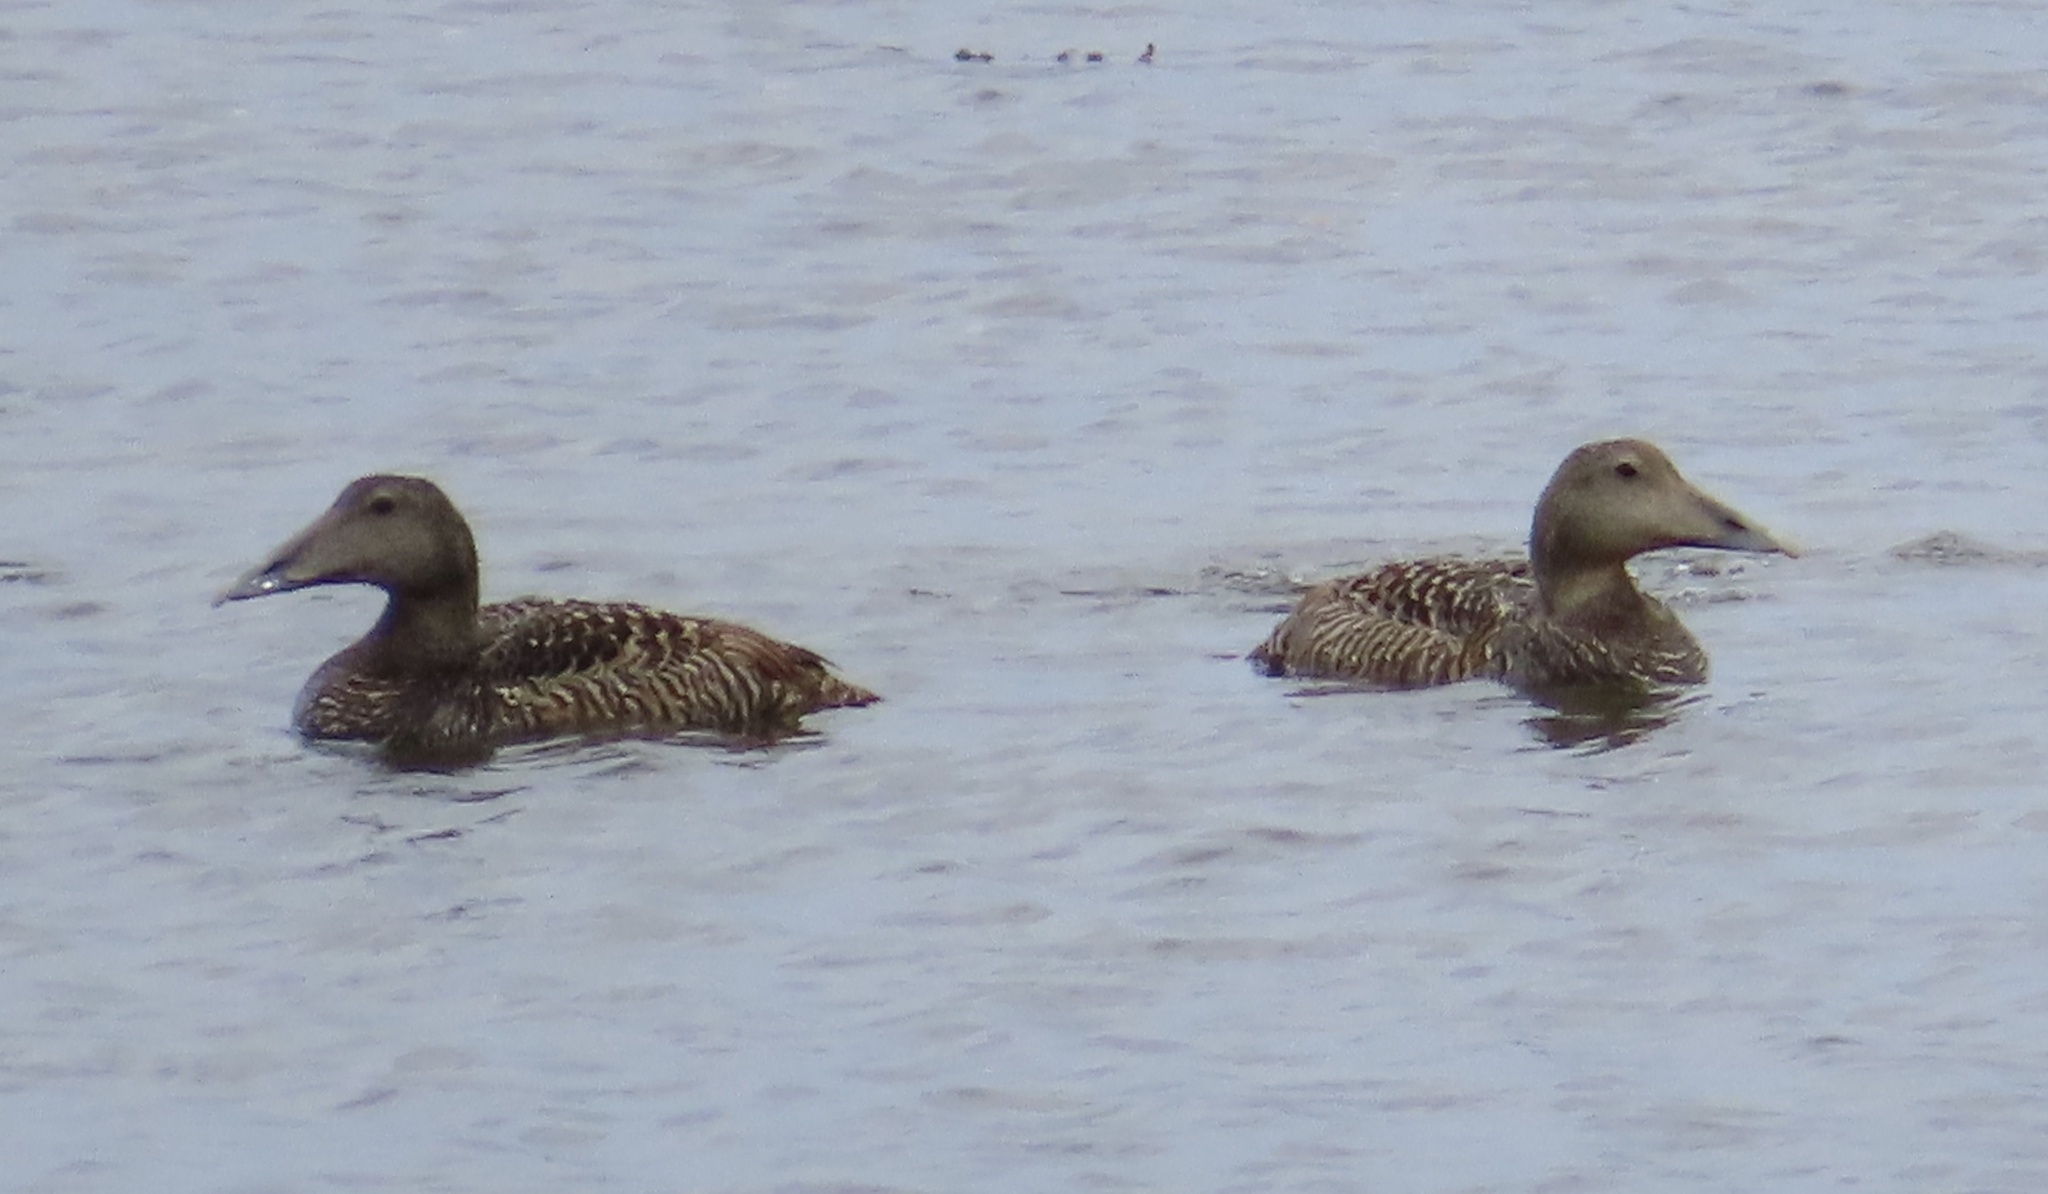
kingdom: Animalia
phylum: Chordata
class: Aves
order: Anseriformes
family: Anatidae
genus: Somateria
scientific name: Somateria mollissima
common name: Common eider
